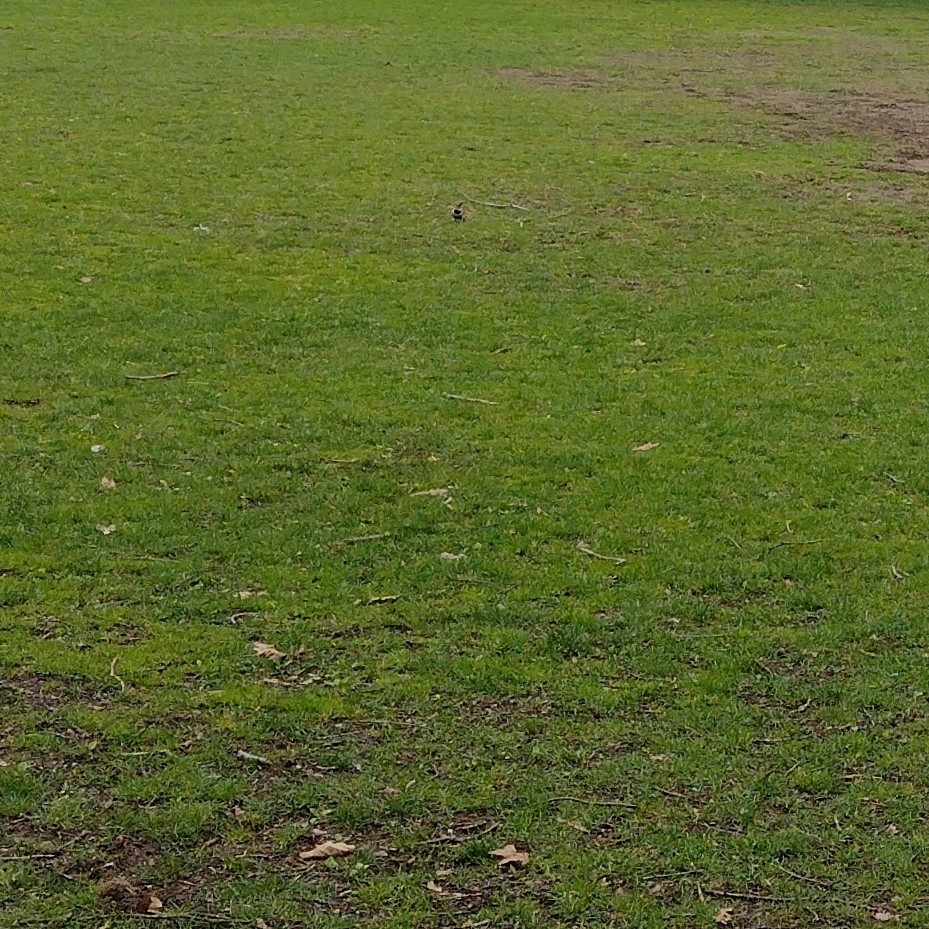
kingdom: Animalia
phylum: Chordata
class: Aves
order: Piciformes
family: Picidae
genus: Colaptes
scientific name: Colaptes auratus
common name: Northern flicker
